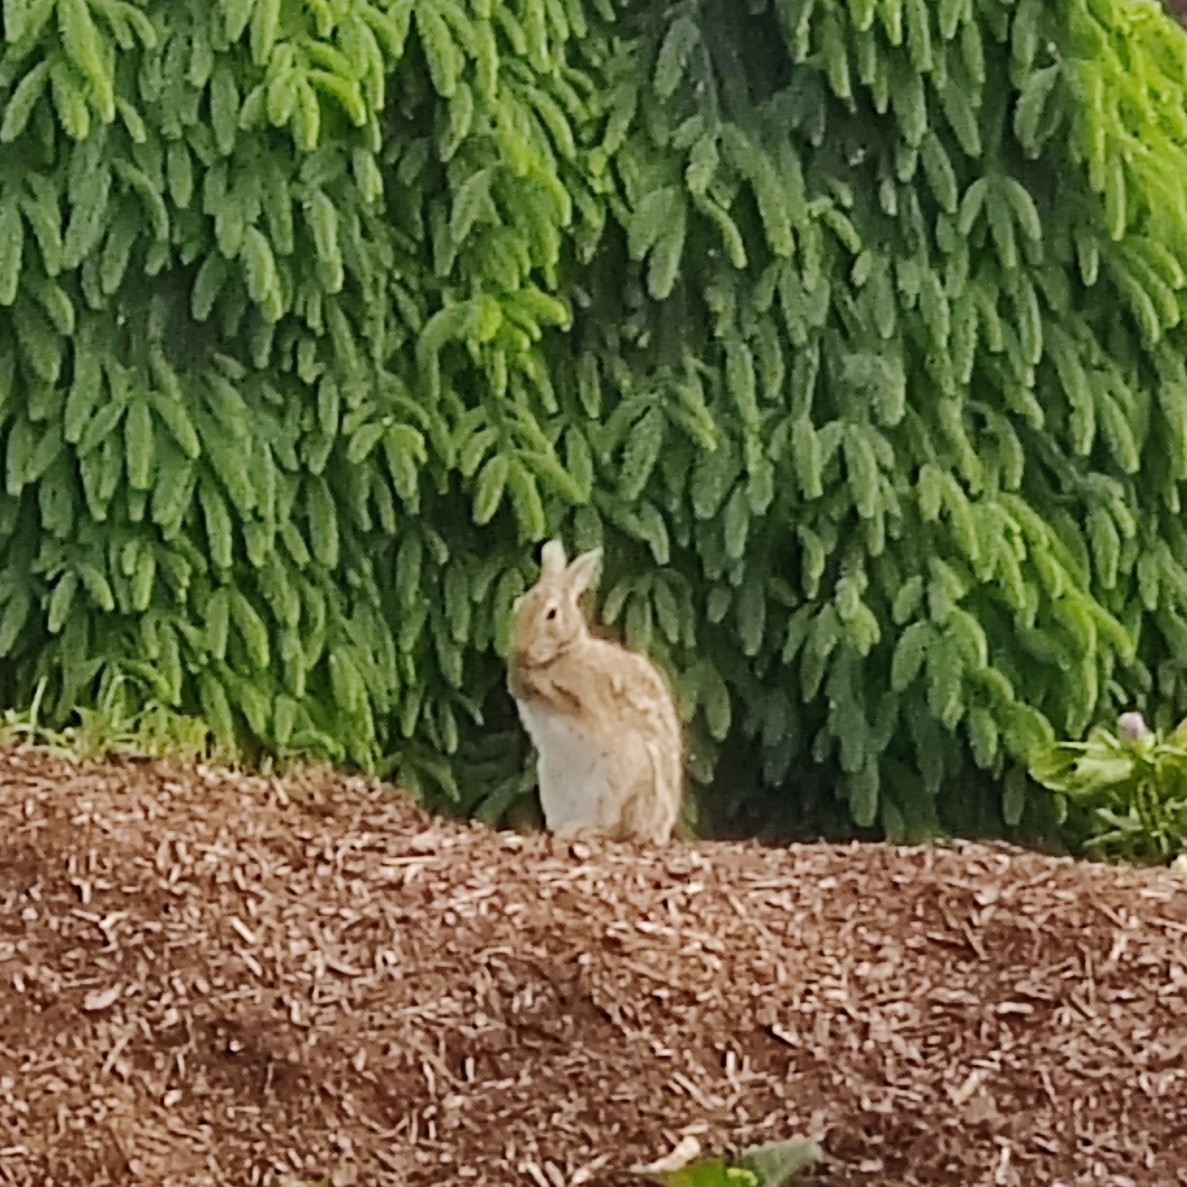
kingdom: Animalia
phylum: Chordata
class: Mammalia
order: Lagomorpha
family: Leporidae
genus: Sylvilagus
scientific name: Sylvilagus floridanus
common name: Eastern cottontail
